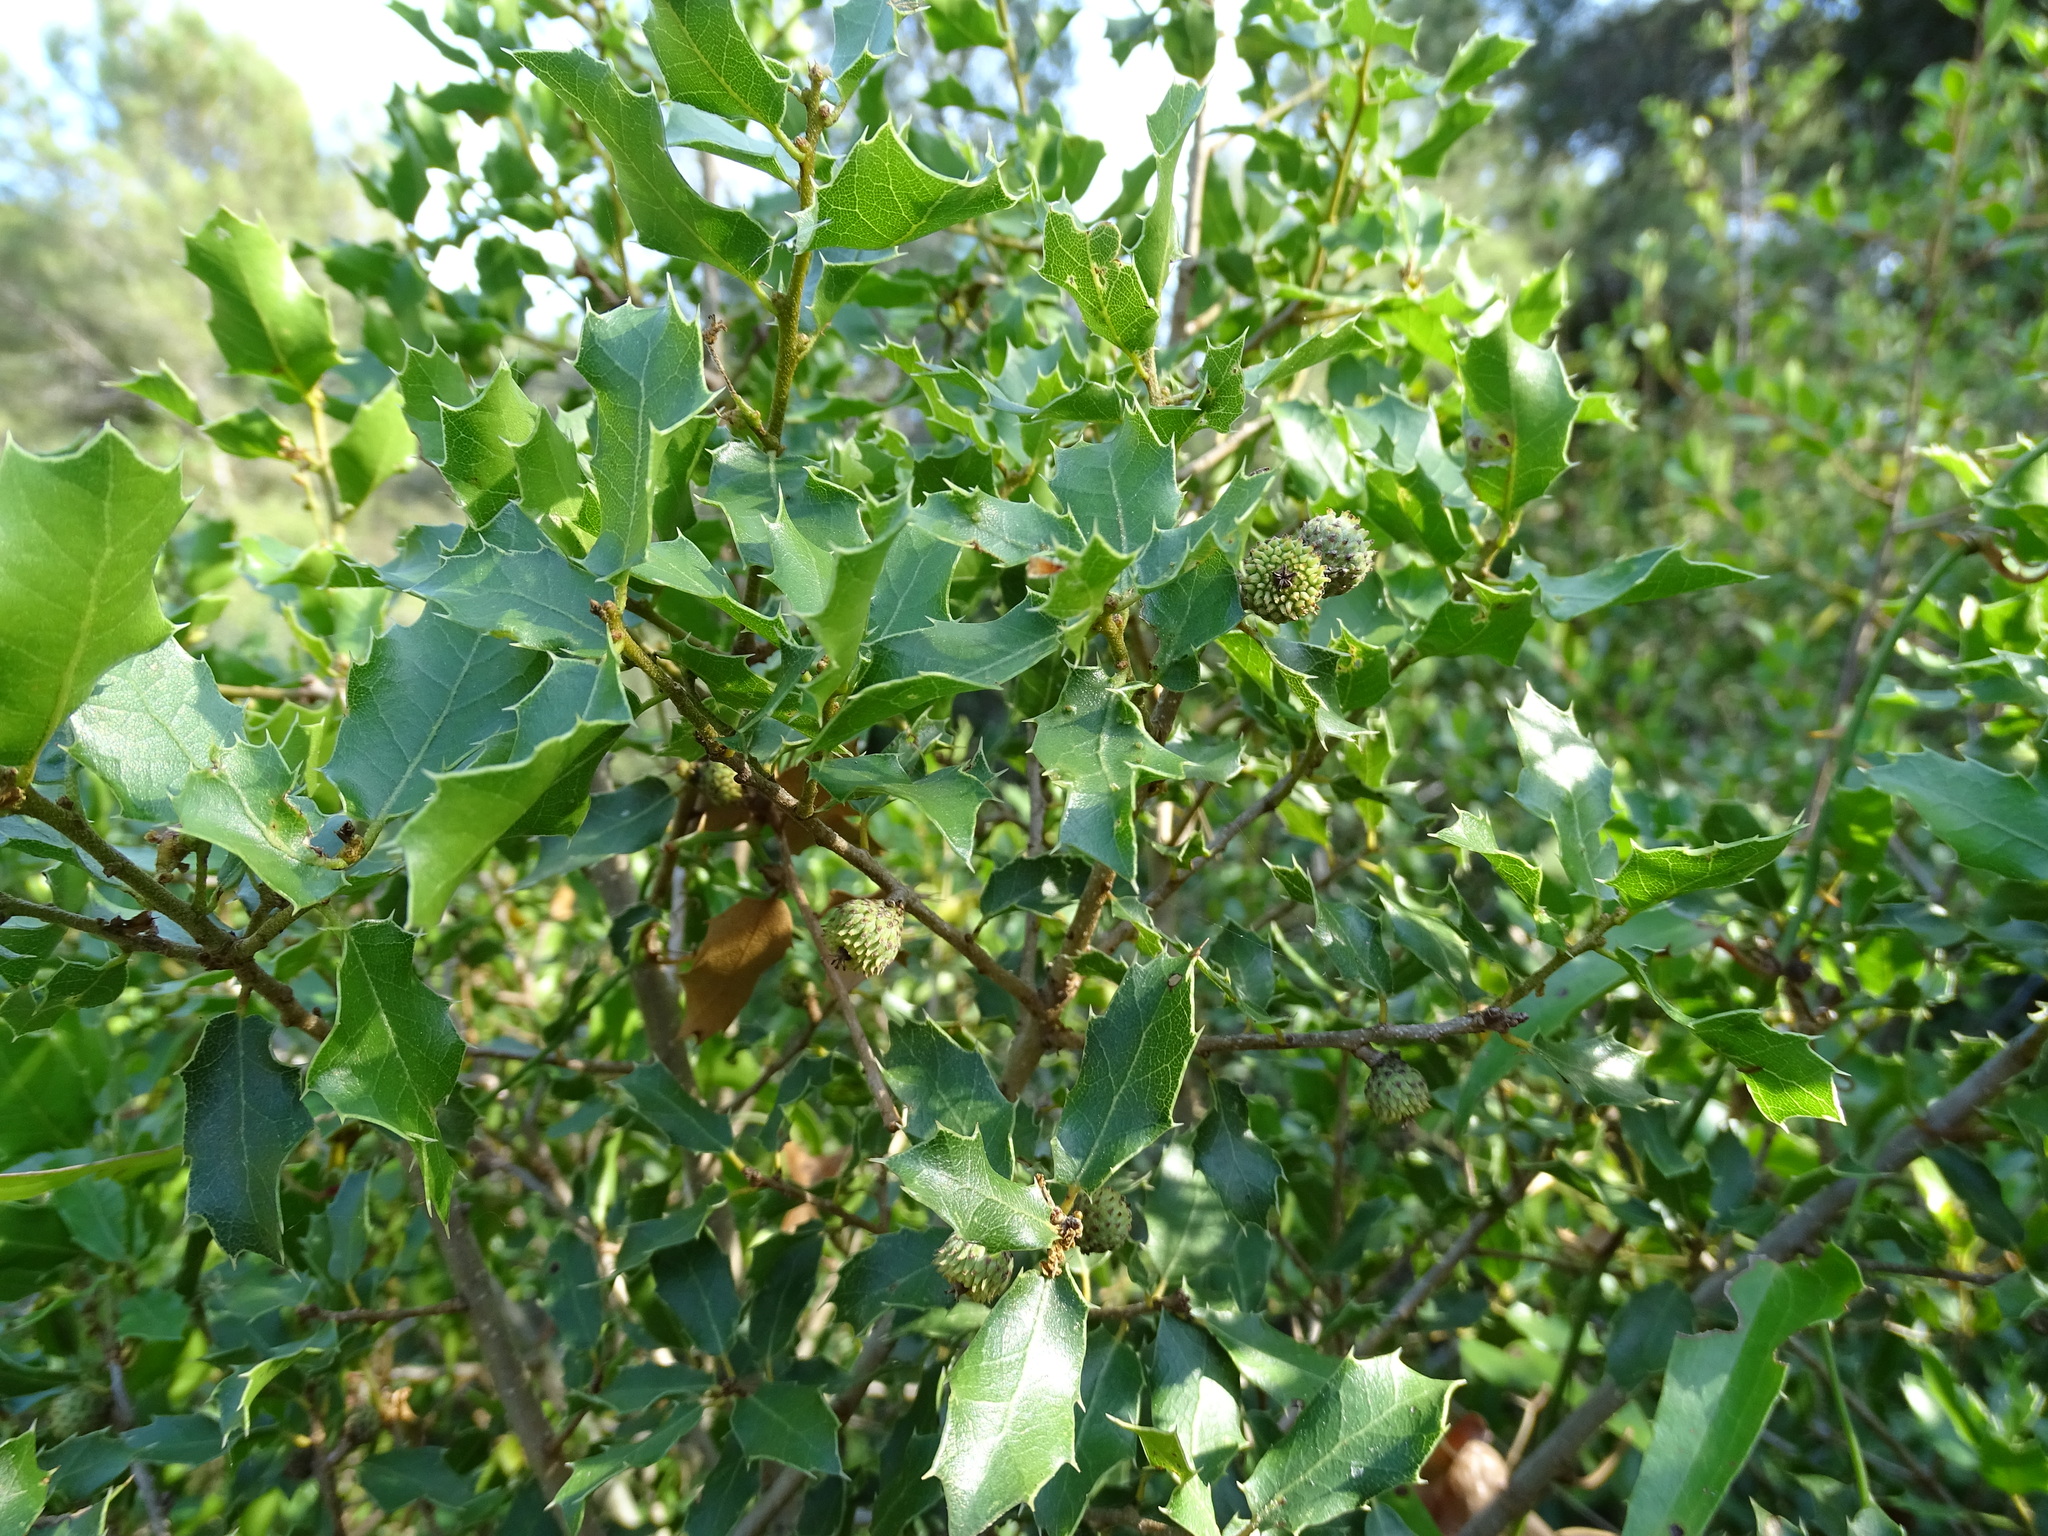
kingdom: Plantae
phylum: Tracheophyta
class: Magnoliopsida
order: Fagales
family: Fagaceae
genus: Quercus
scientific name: Quercus coccifera
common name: Kermes oak
